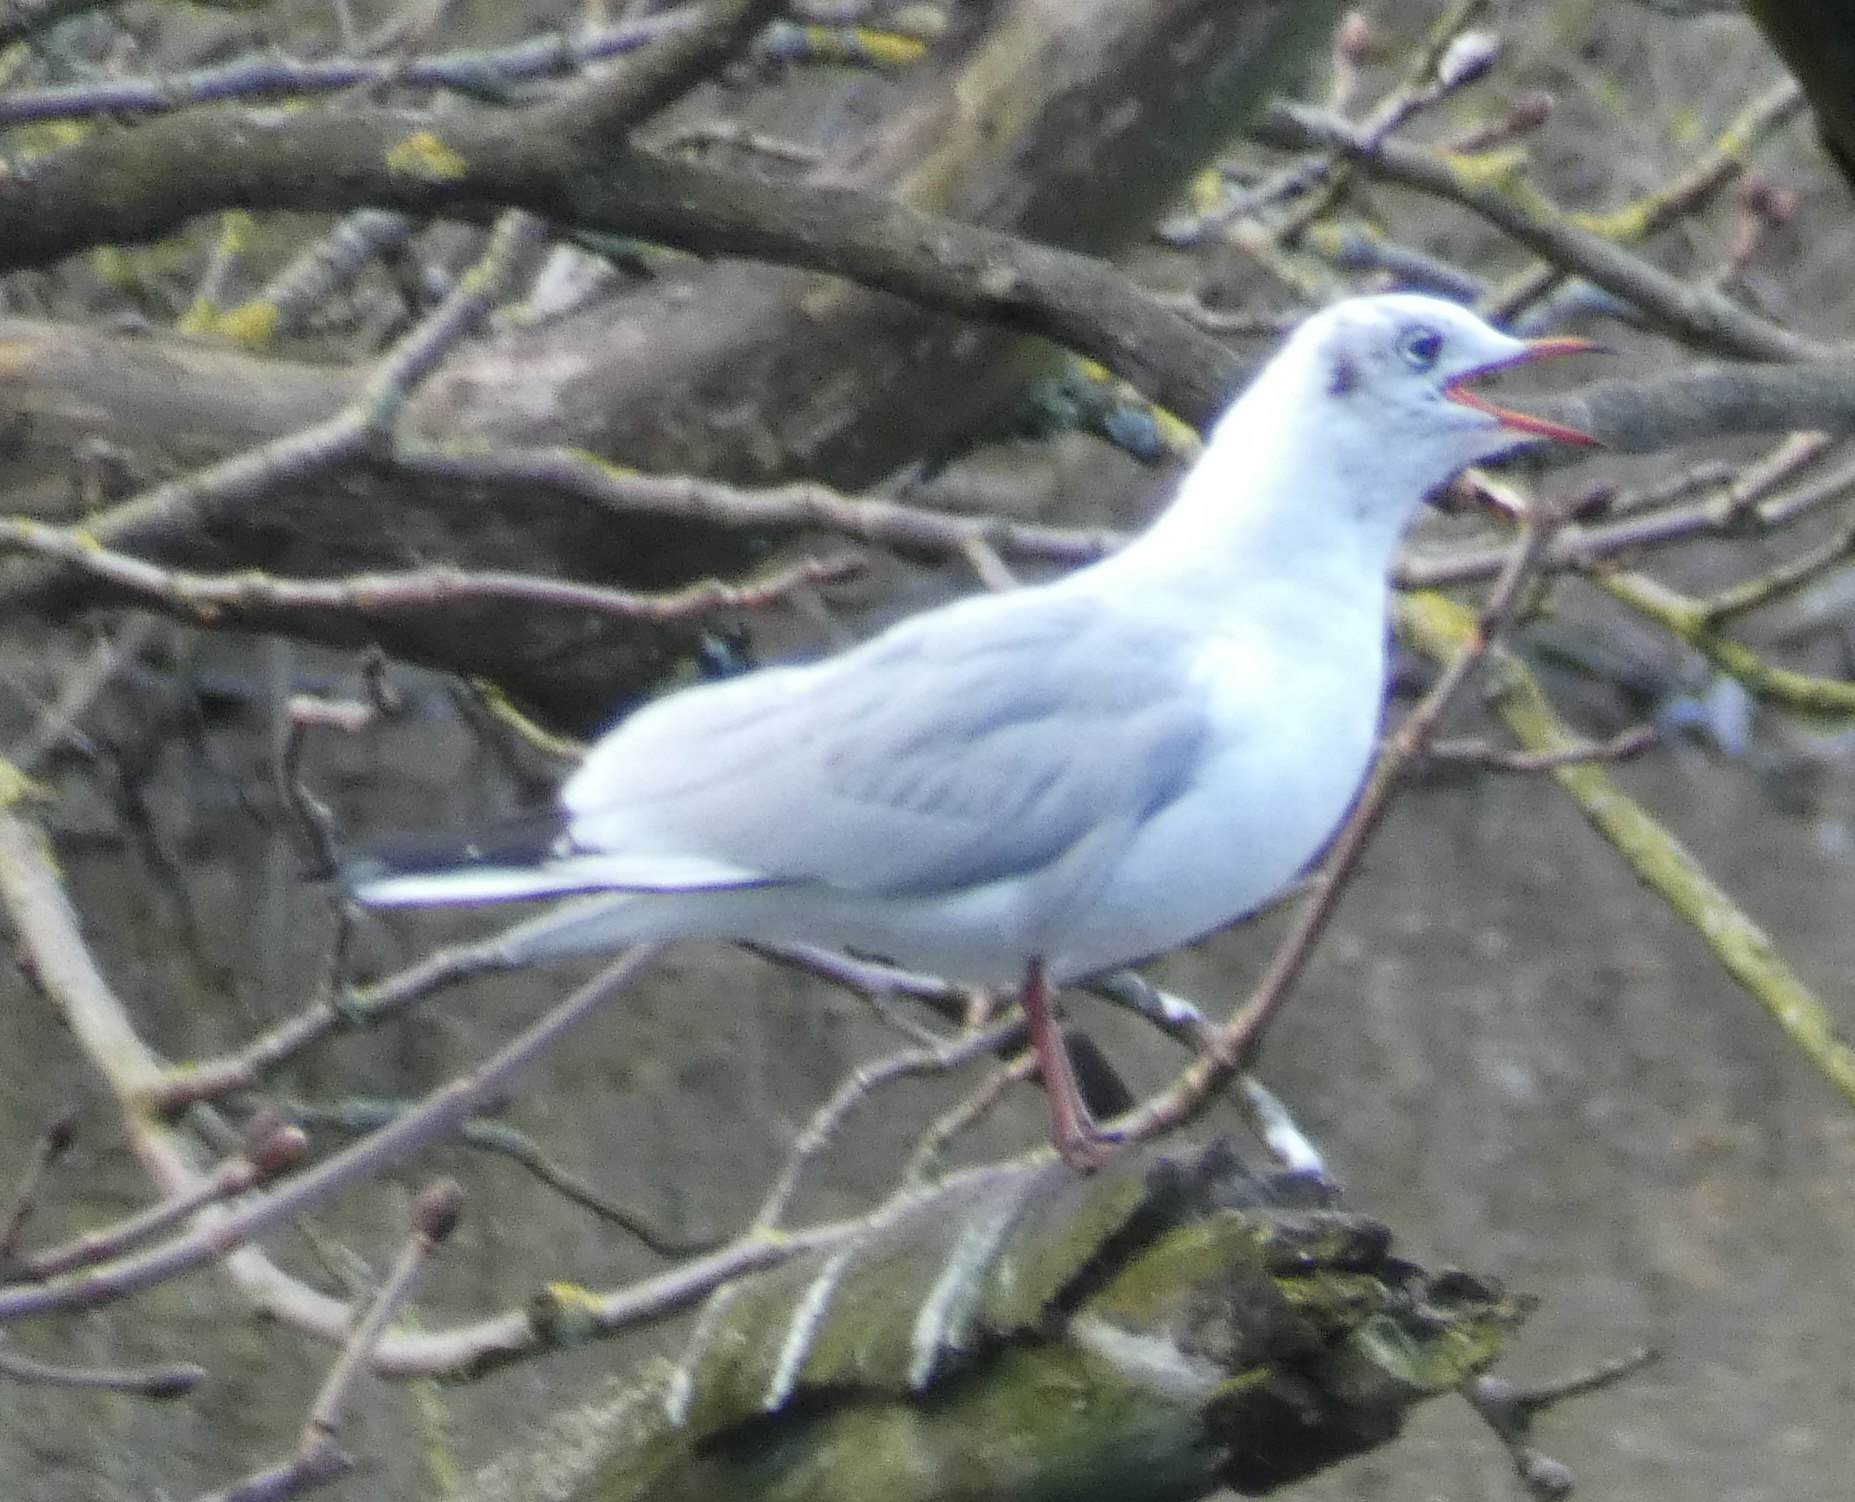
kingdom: Animalia
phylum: Chordata
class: Aves
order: Charadriiformes
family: Laridae
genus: Chroicocephalus
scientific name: Chroicocephalus ridibundus
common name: Black-headed gull
